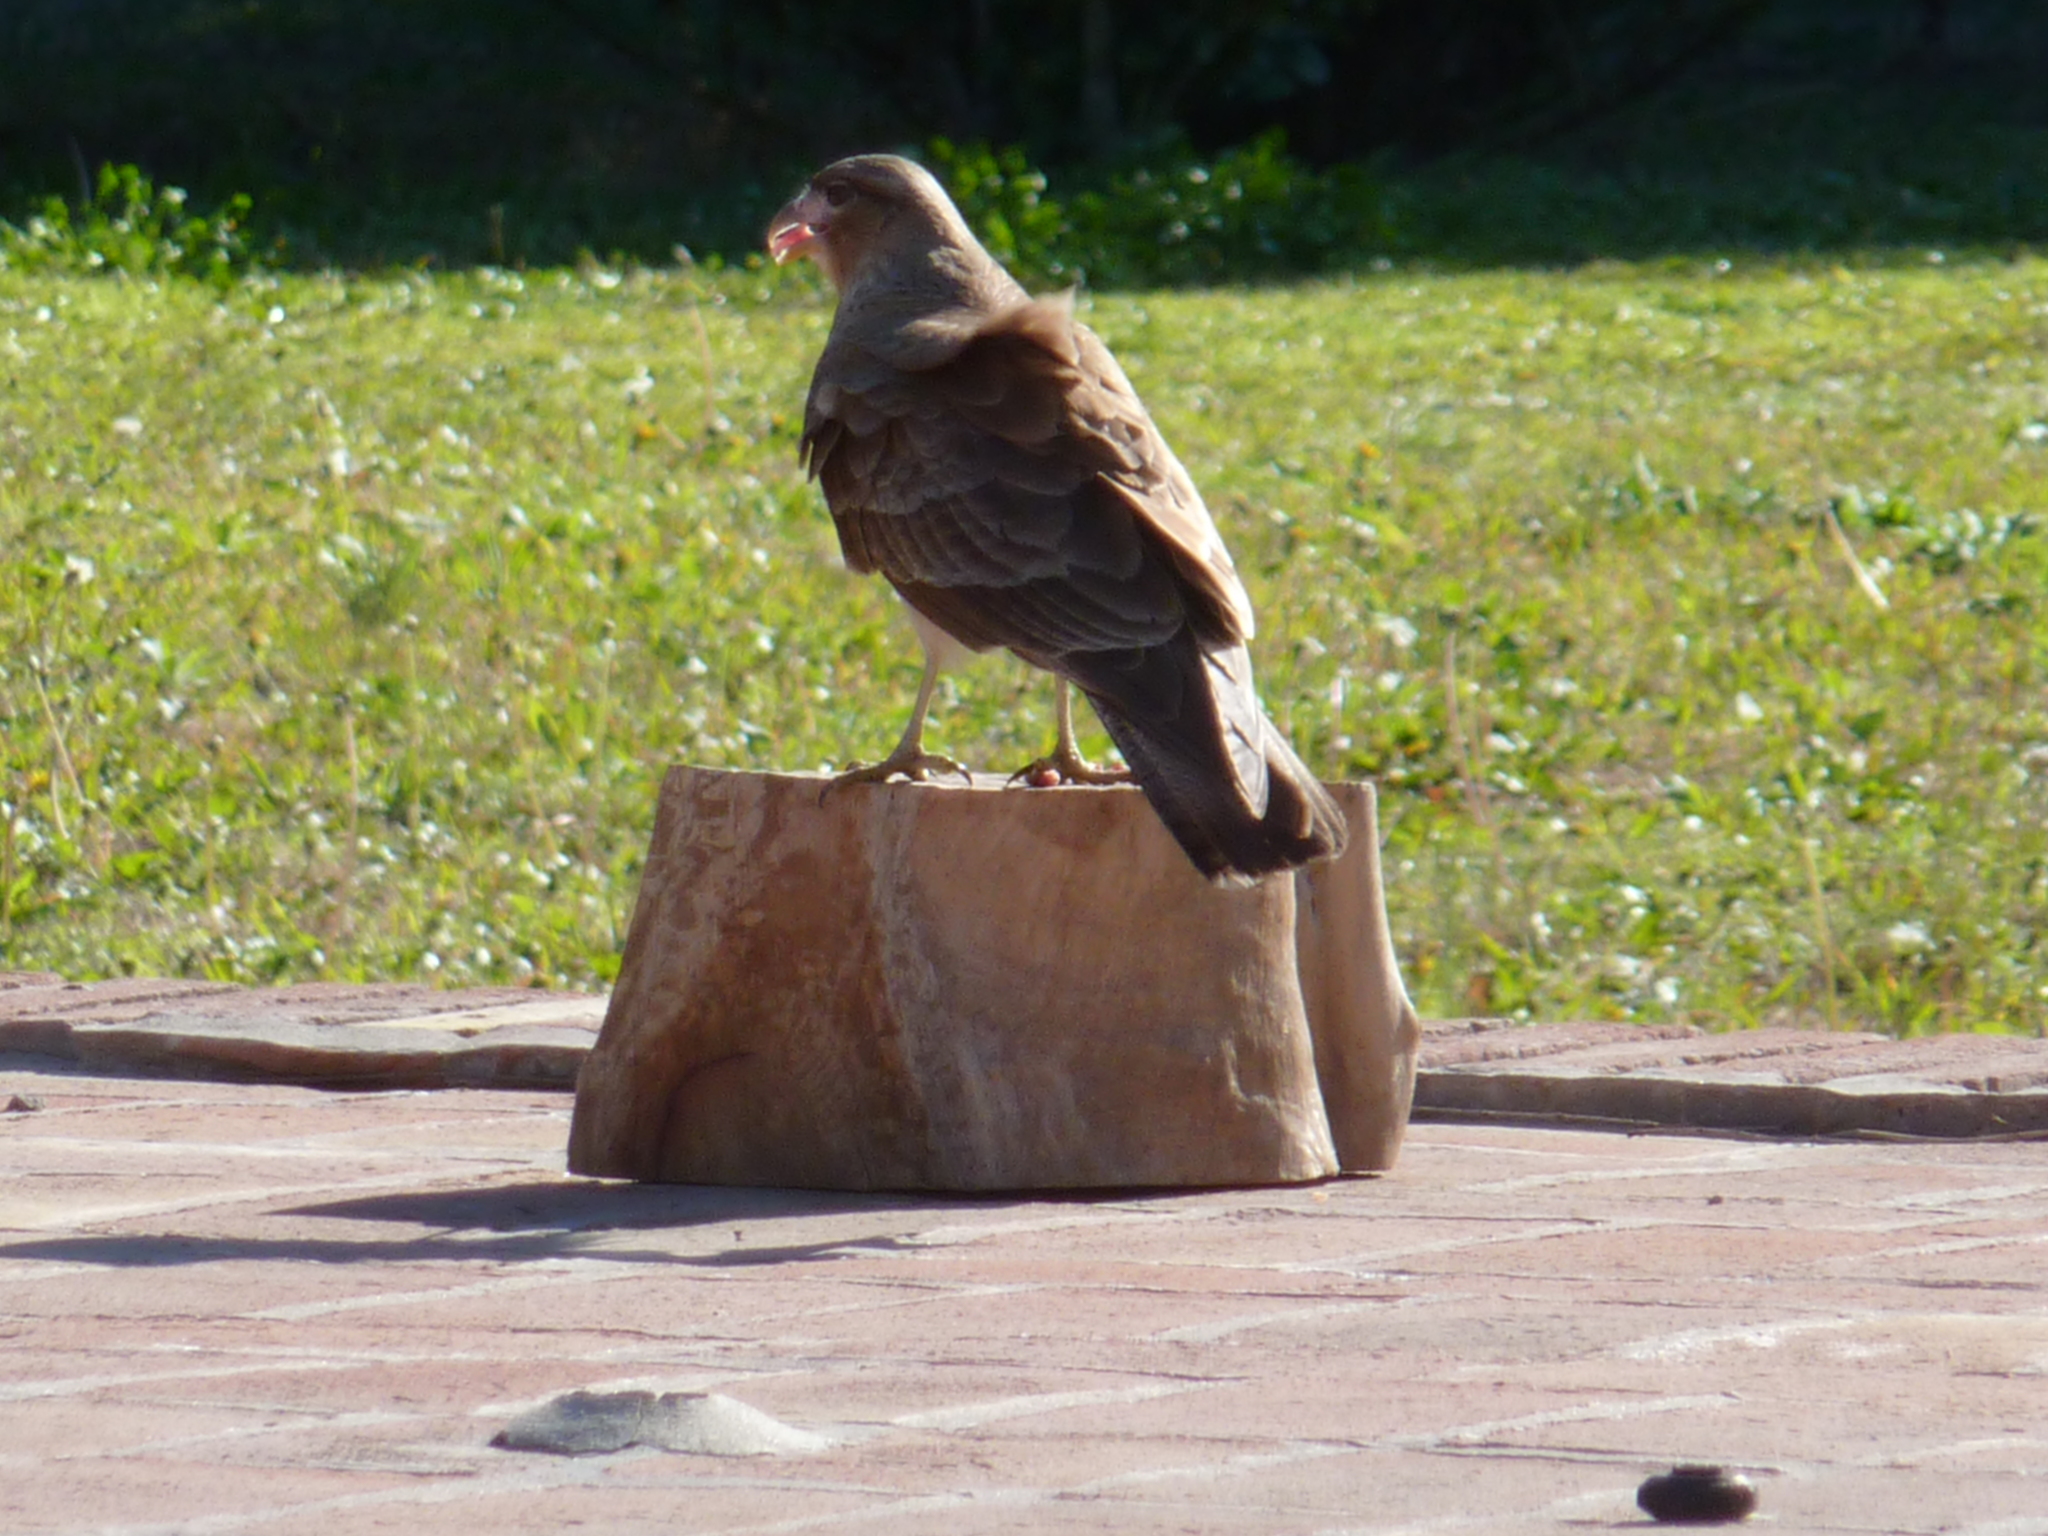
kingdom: Animalia
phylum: Chordata
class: Aves
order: Falconiformes
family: Falconidae
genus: Daptrius
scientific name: Daptrius
